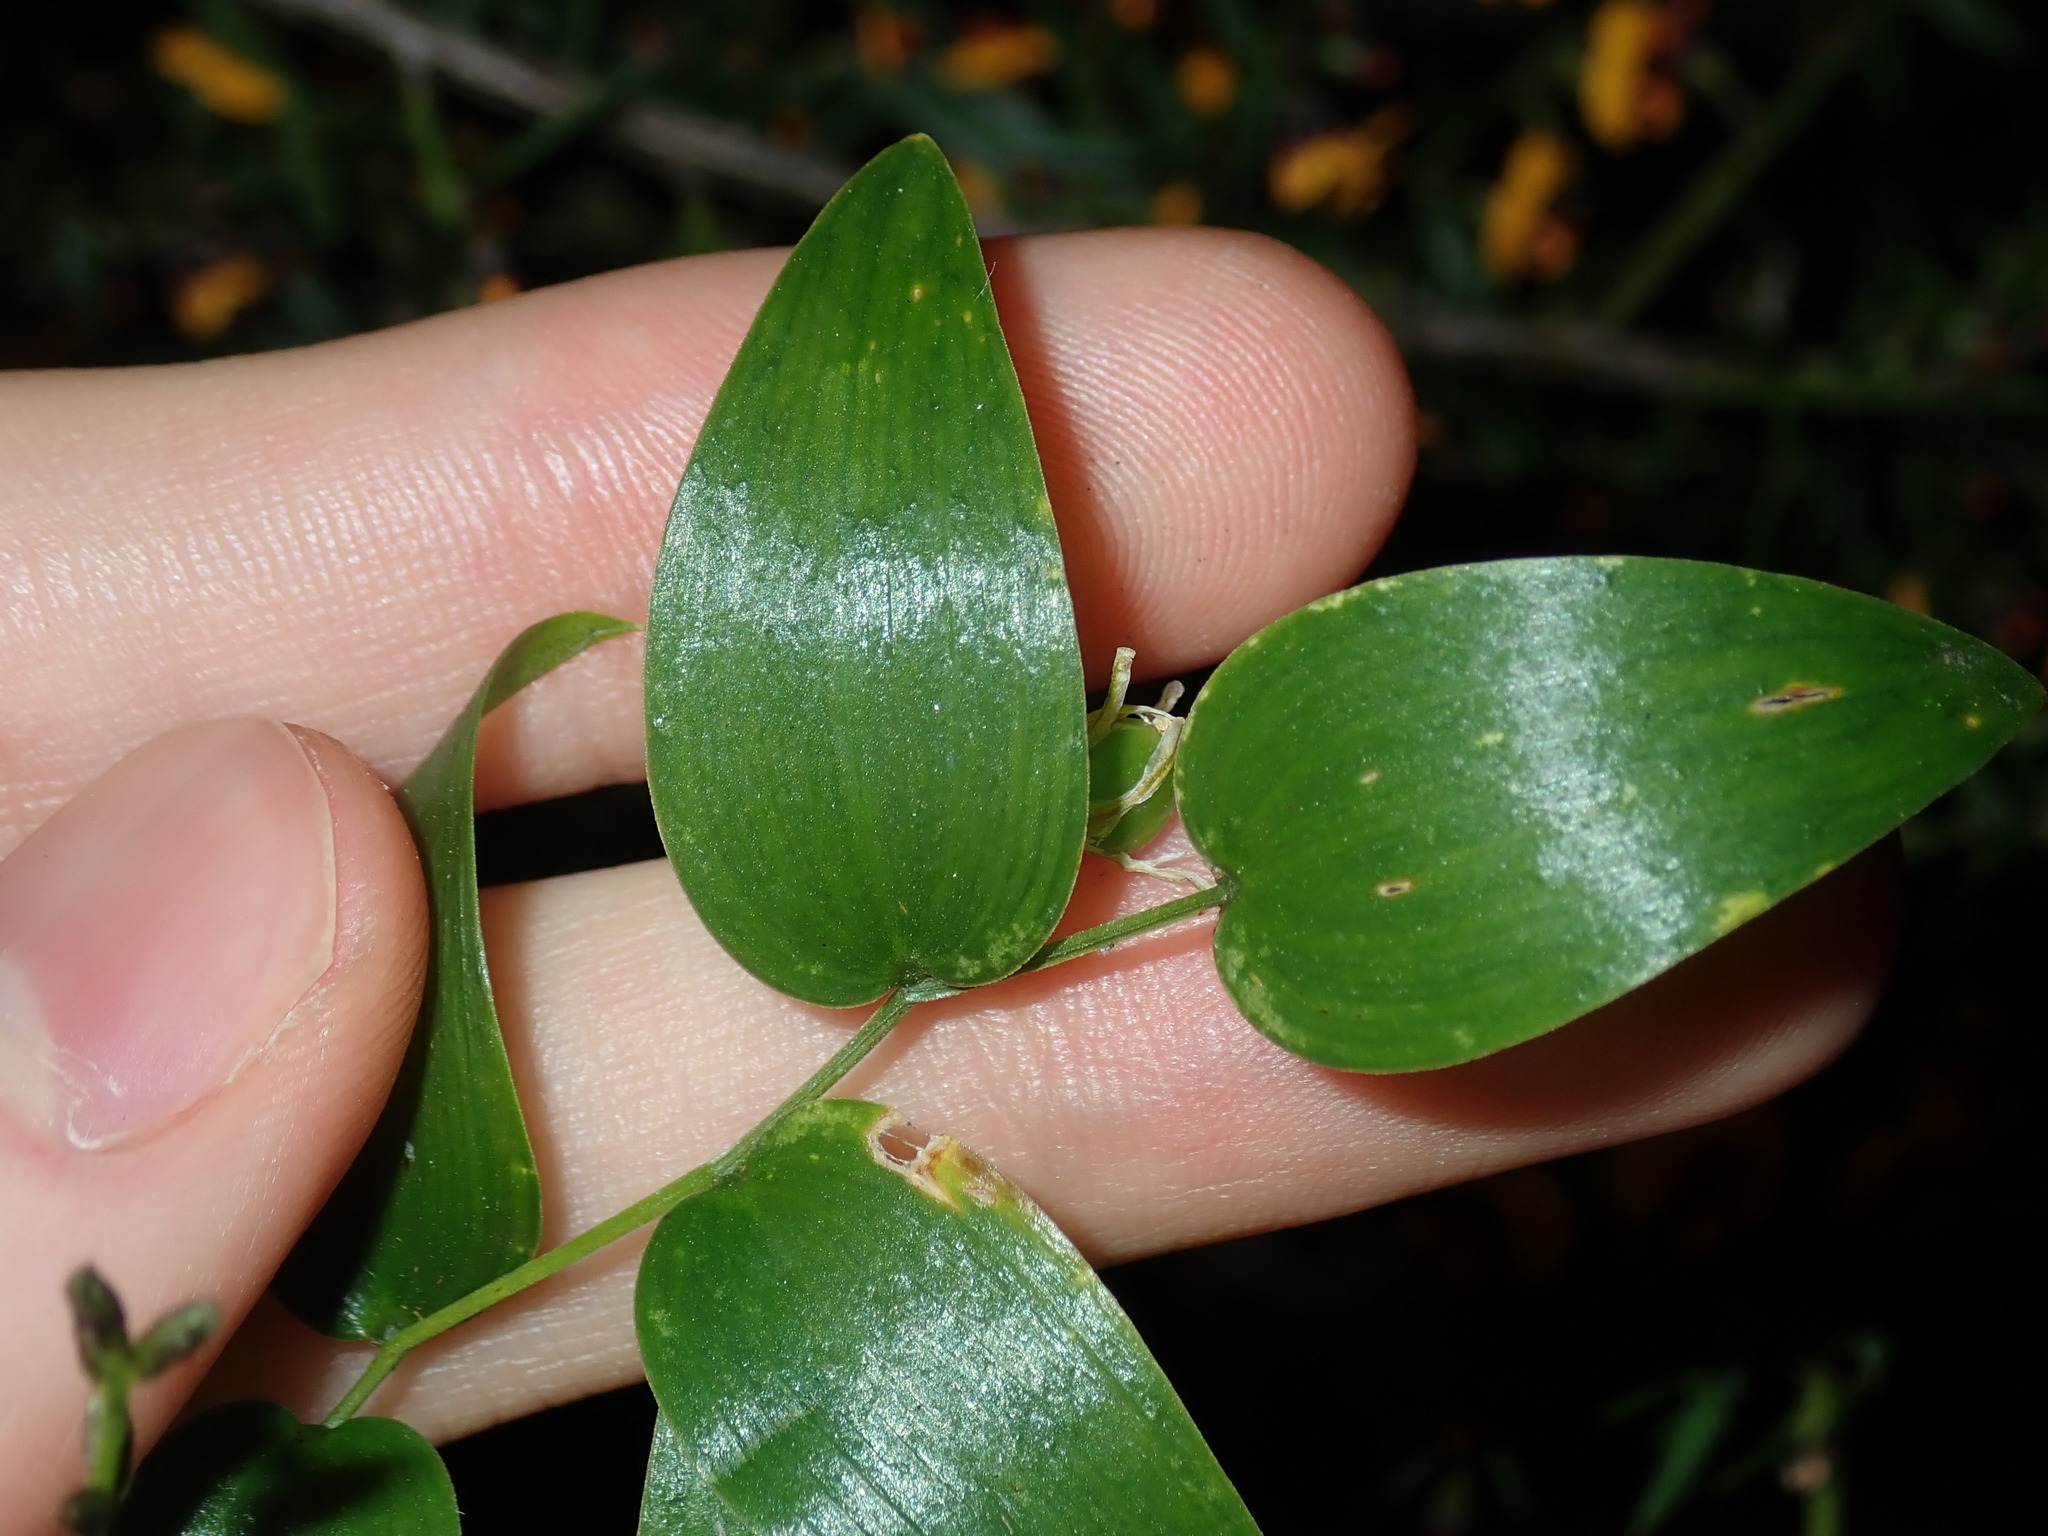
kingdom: Plantae
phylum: Tracheophyta
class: Liliopsida
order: Asparagales
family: Asparagaceae
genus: Asparagus
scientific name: Asparagus asparagoides
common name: African asparagus fern
